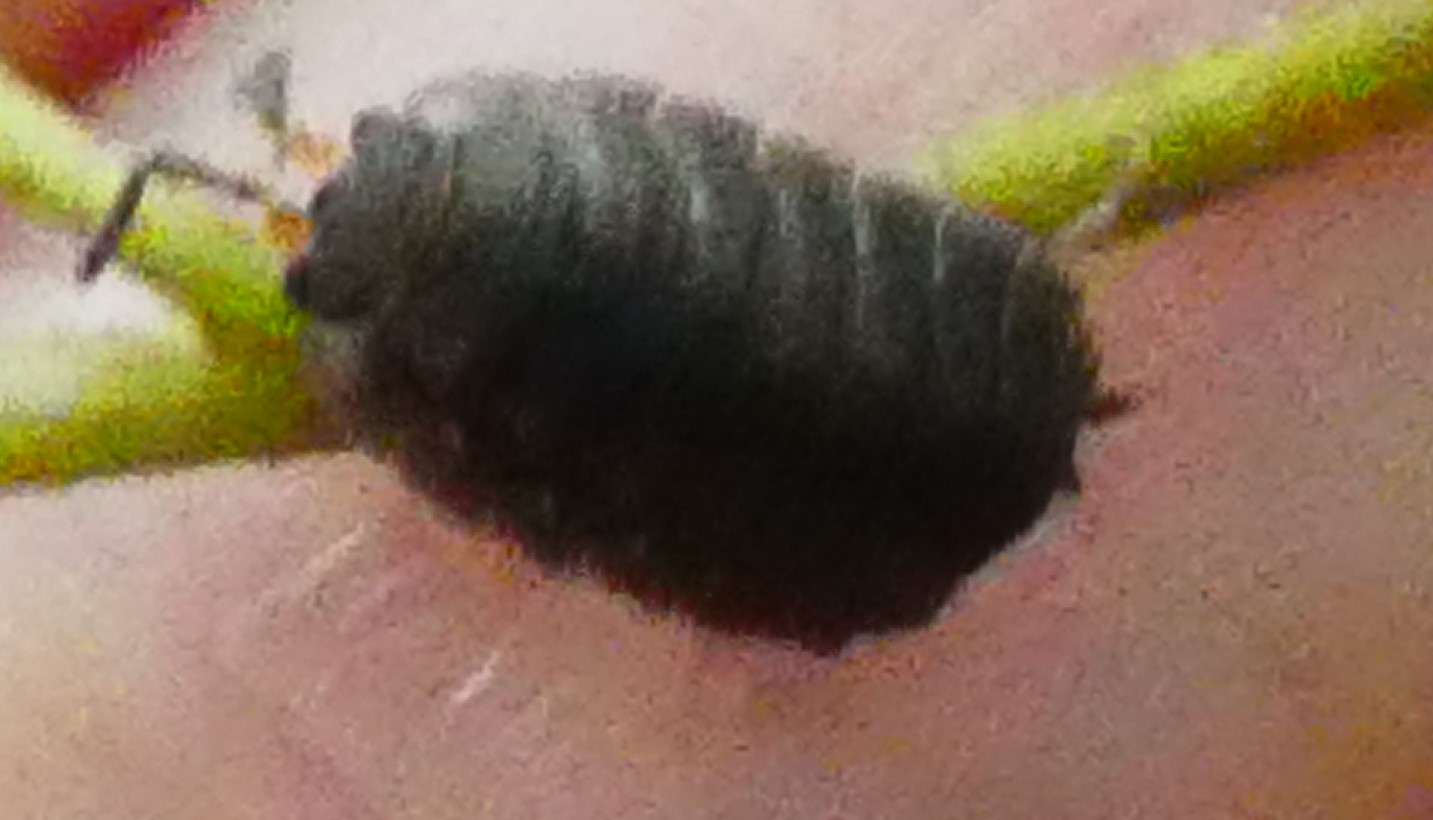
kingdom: Animalia
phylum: Arthropoda
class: Malacostraca
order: Isopoda
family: Porcellionidae
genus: Porcellio
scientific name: Porcellio scaber
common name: Common rough woodlouse
